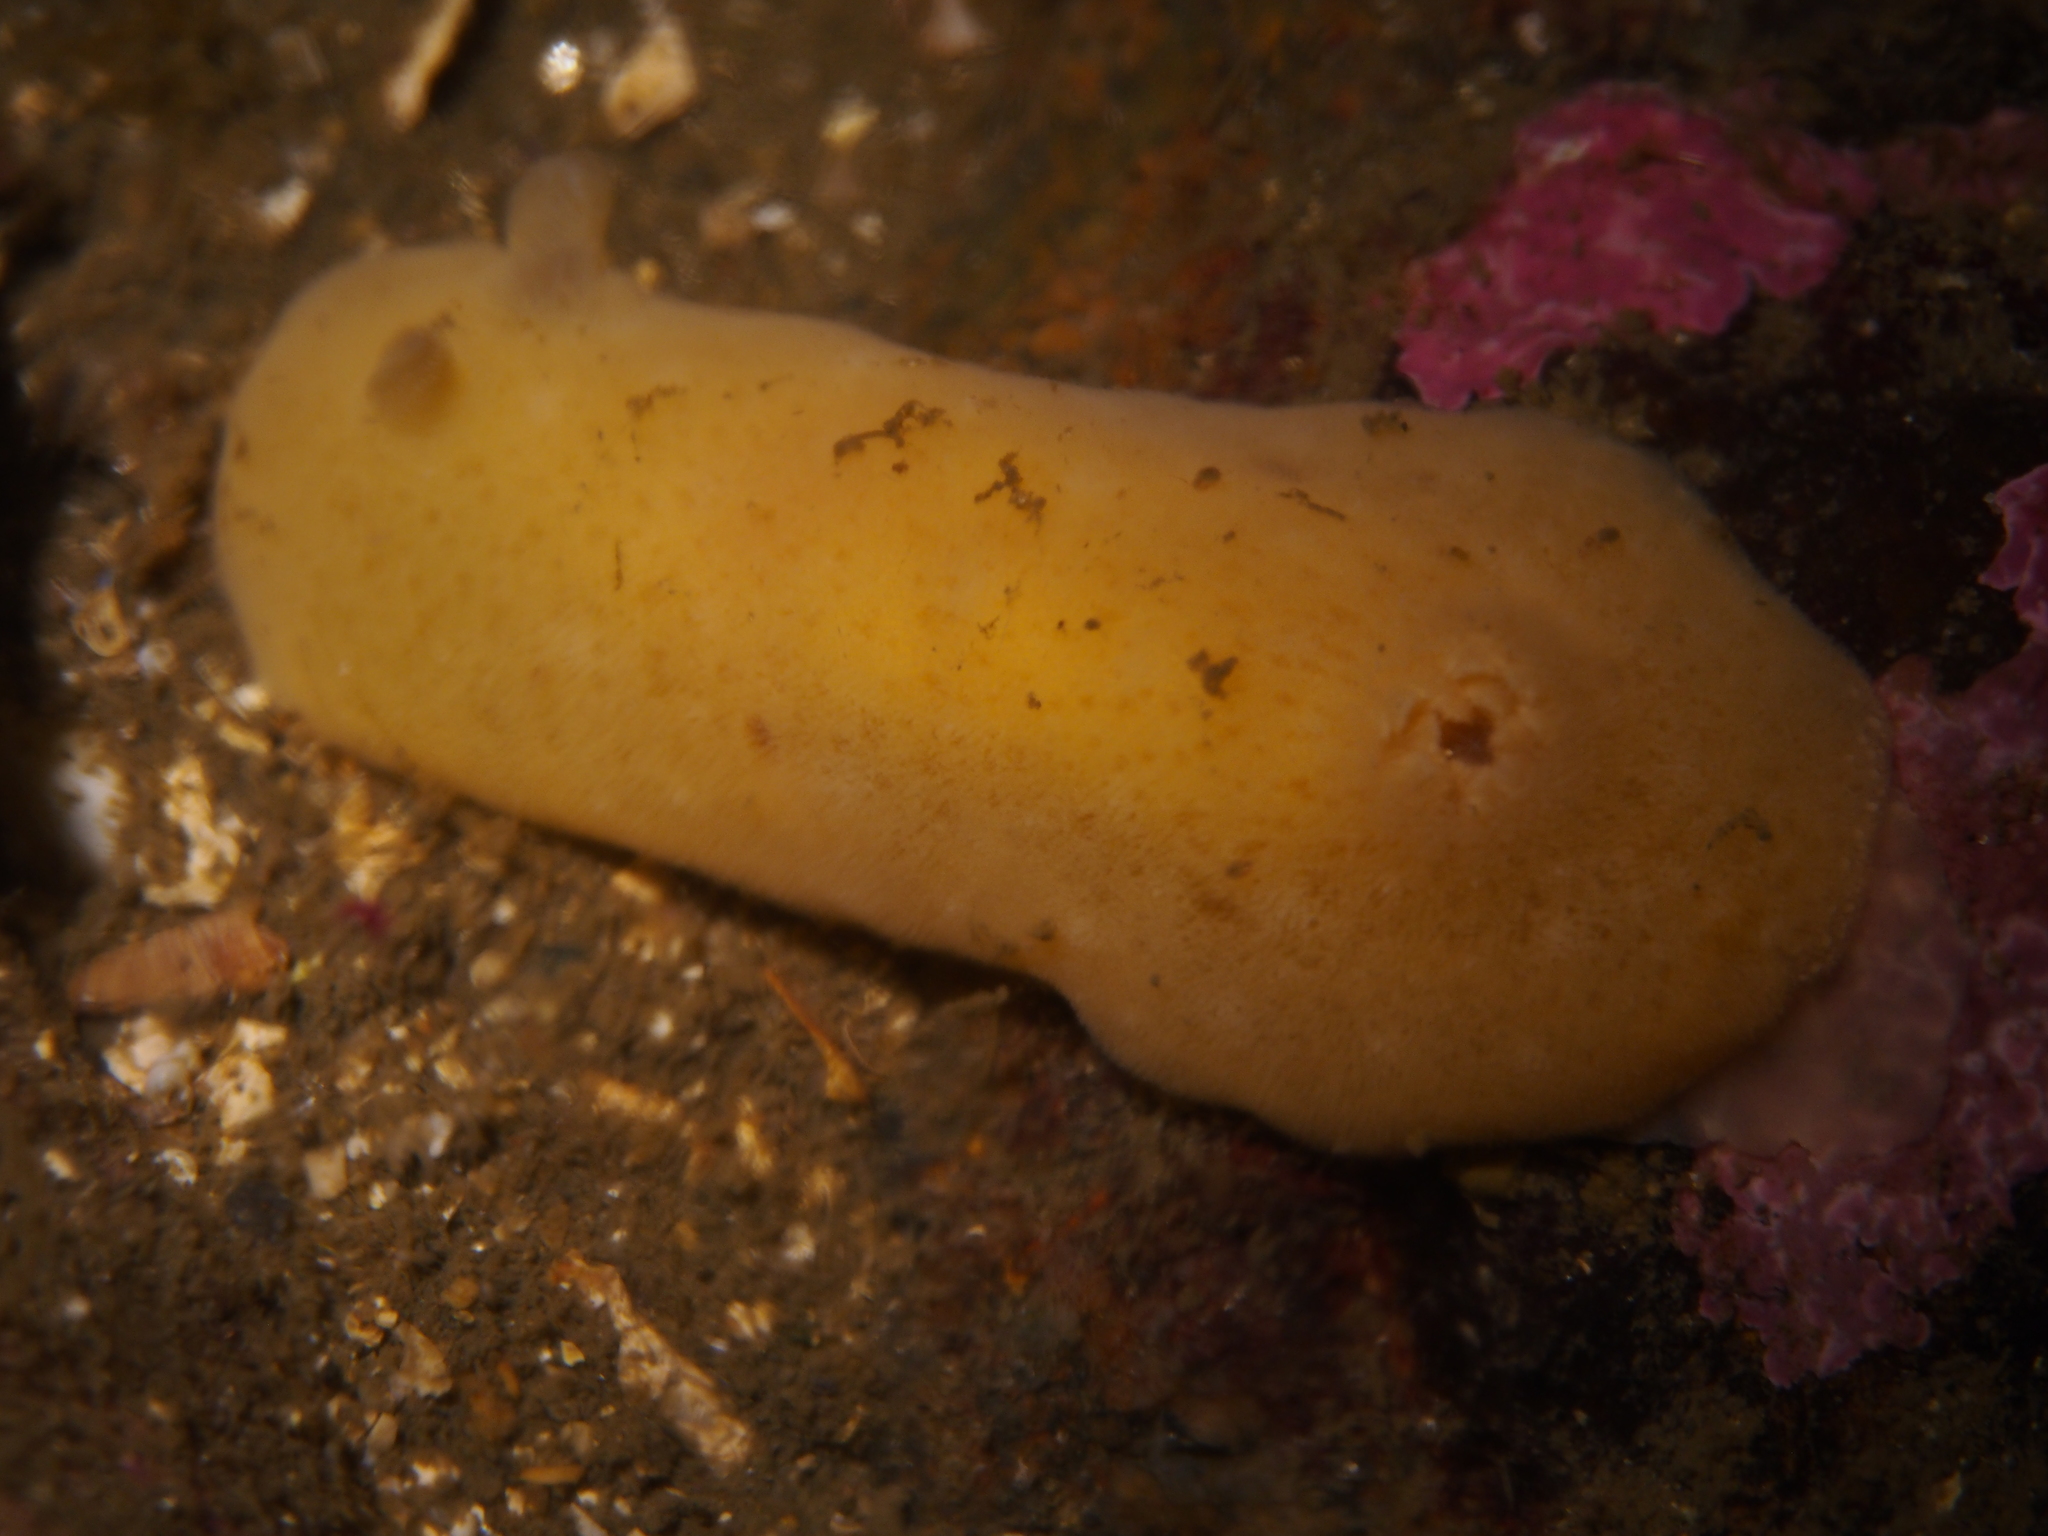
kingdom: Animalia
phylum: Mollusca
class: Gastropoda
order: Nudibranchia
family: Discodorididae
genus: Jorunna
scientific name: Jorunna tomentosa
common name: Grey sea slug
